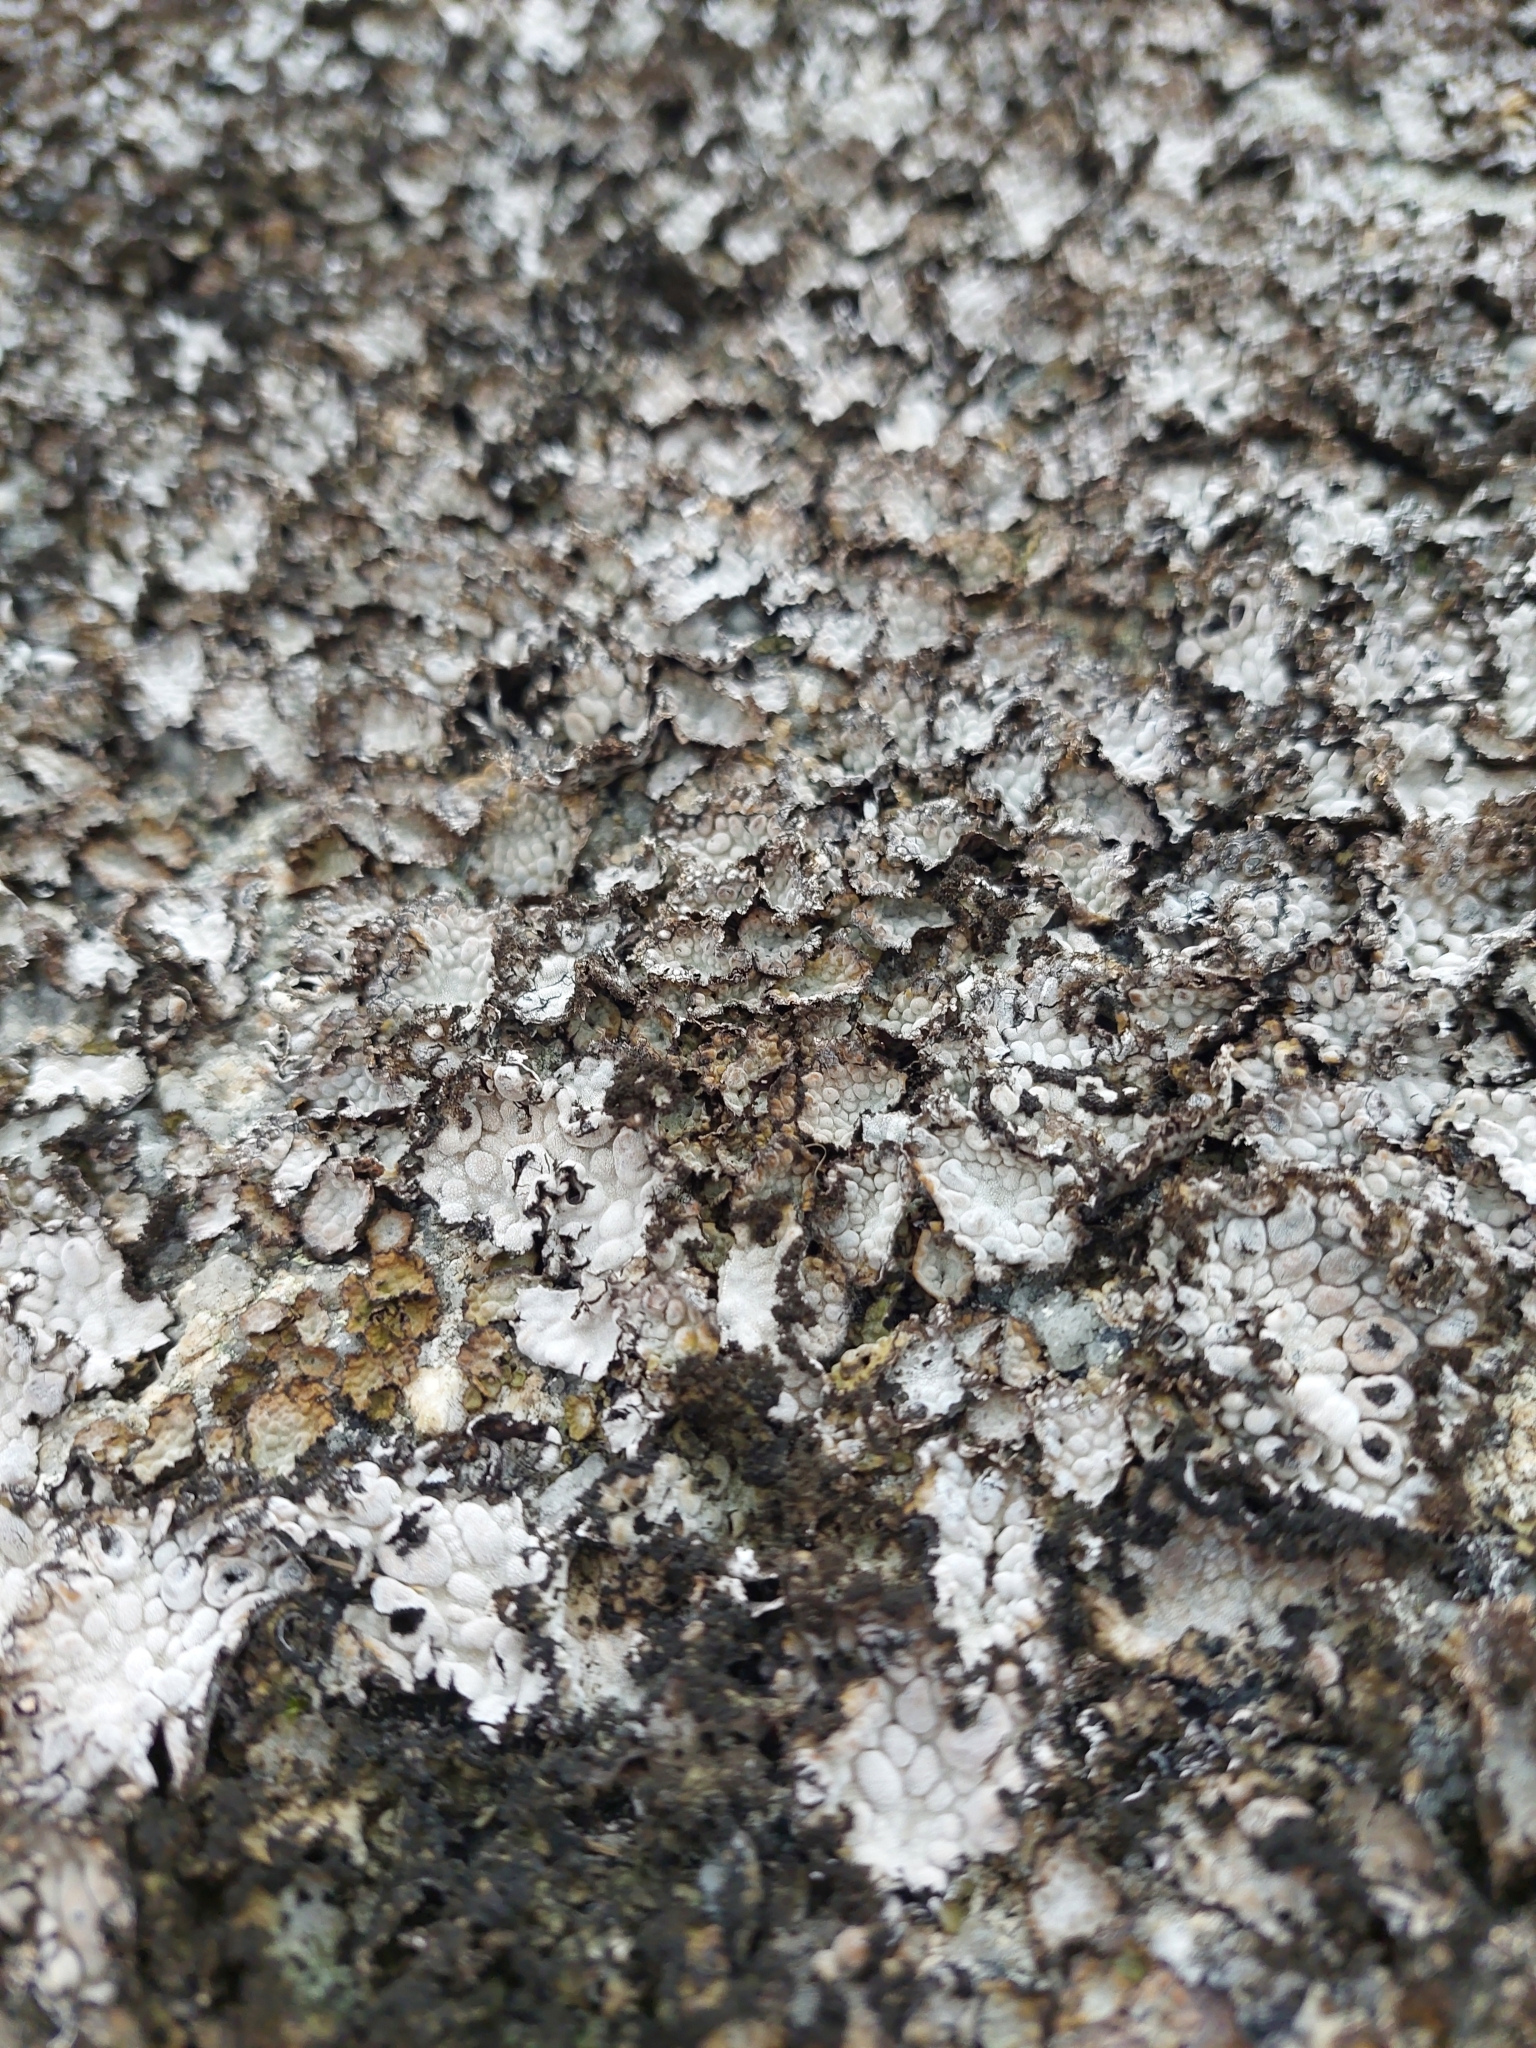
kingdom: Fungi
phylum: Ascomycota
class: Lecanoromycetes
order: Umbilicariales
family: Umbilicariaceae
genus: Lasallia
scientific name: Lasallia pustulata
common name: Blistered toadskin lichen
